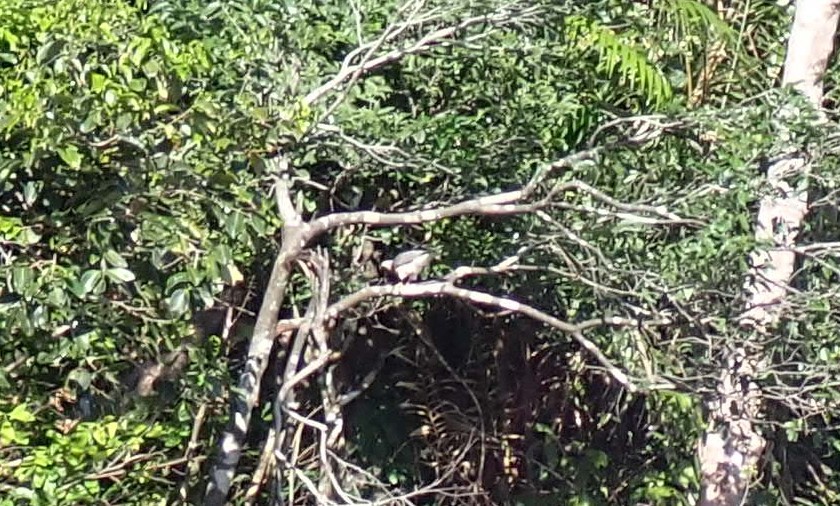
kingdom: Animalia
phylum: Chordata
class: Aves
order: Accipitriformes
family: Accipitridae
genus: Accipiter
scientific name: Accipiter badius
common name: Shikra
